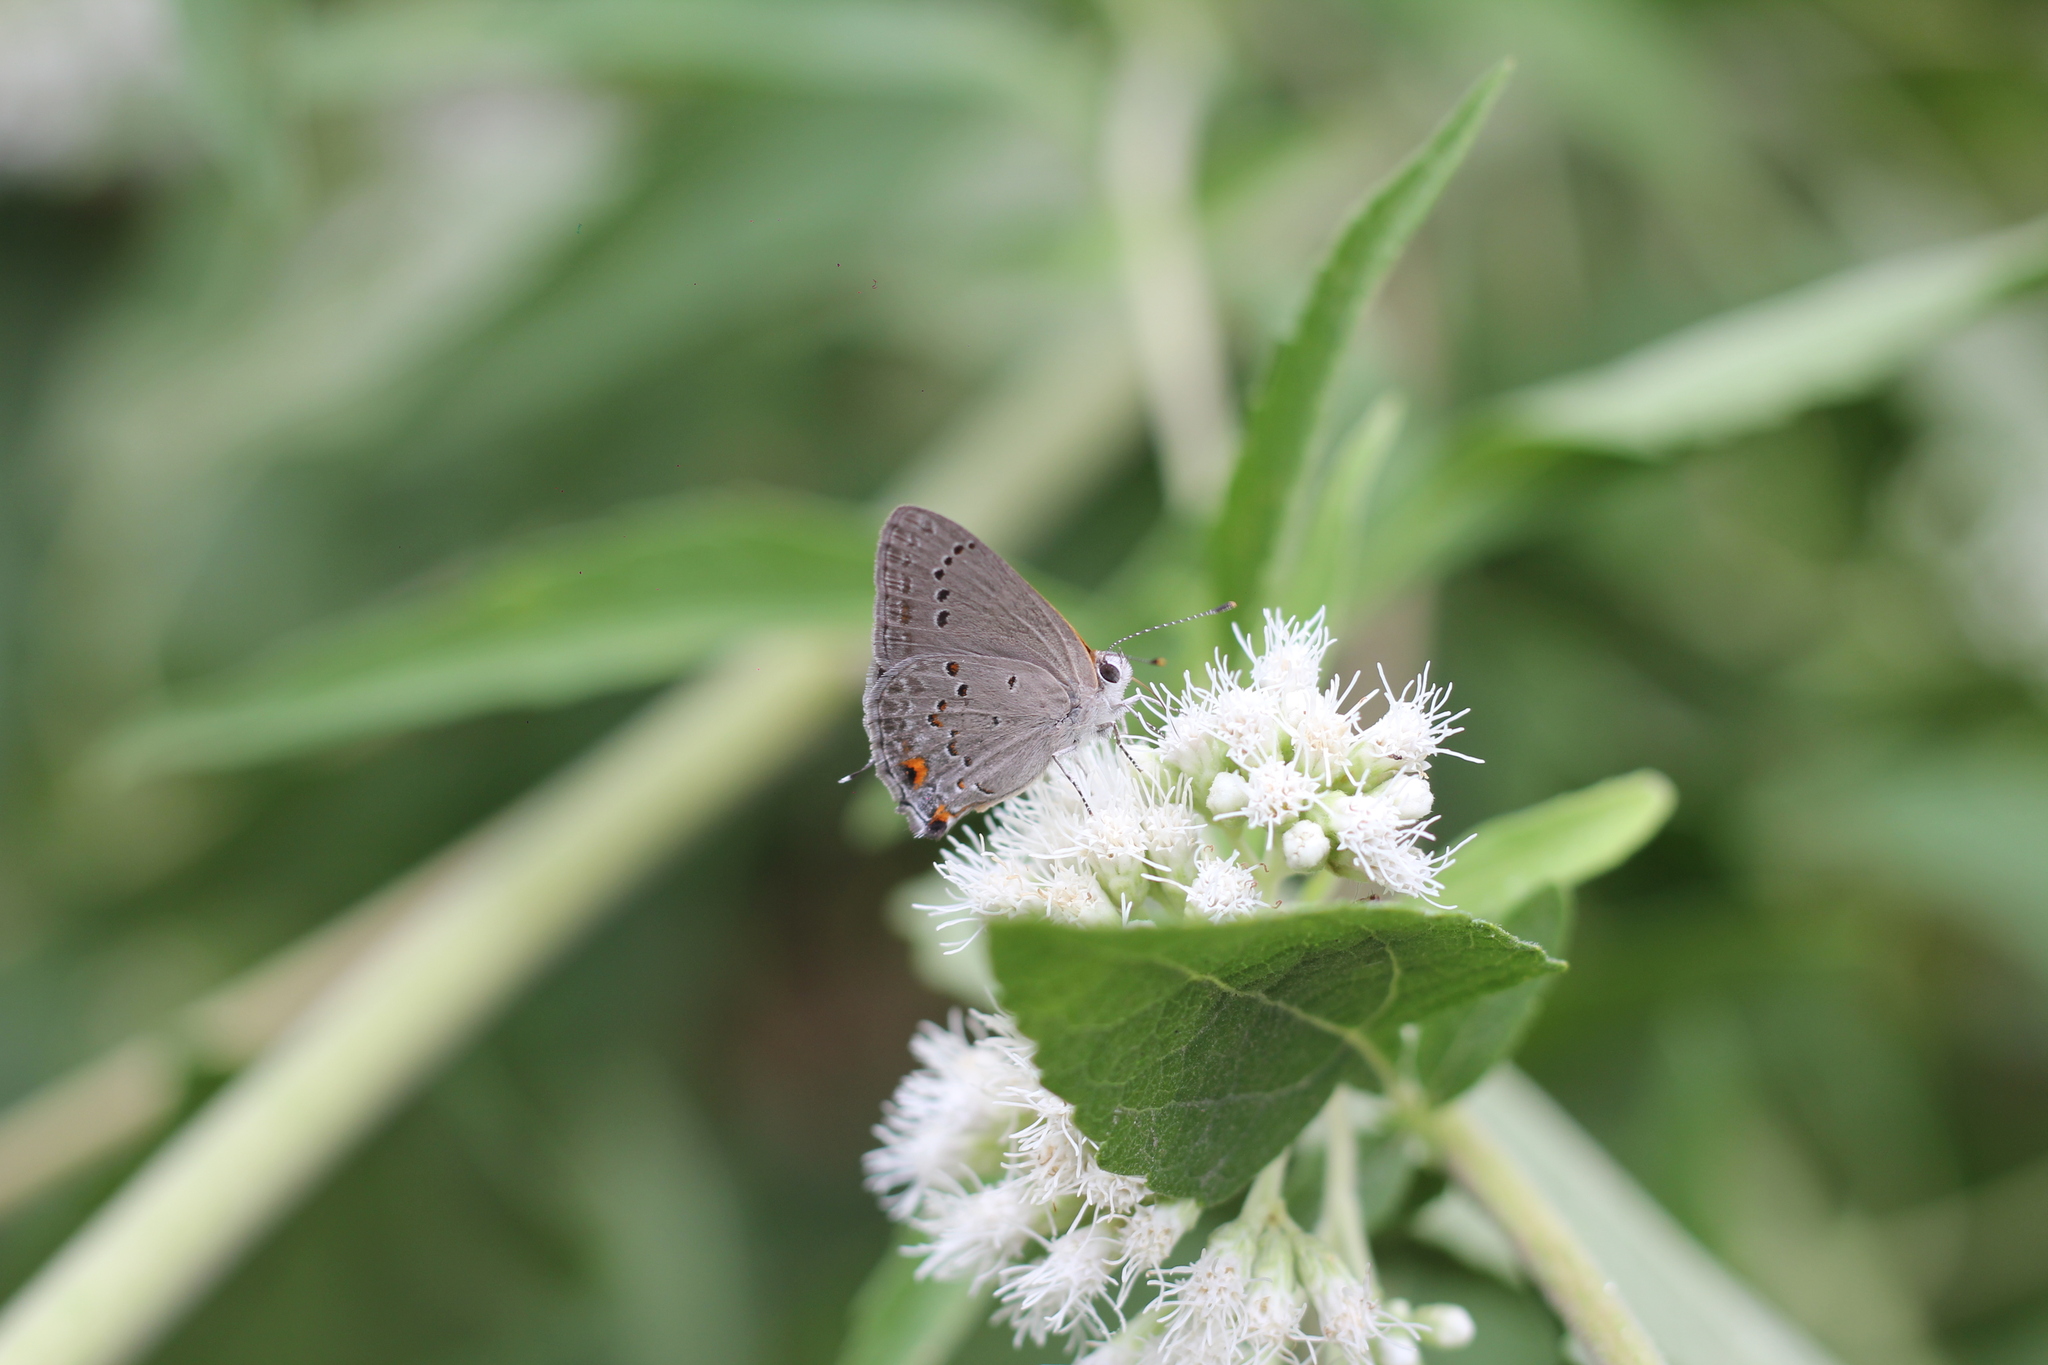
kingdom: Animalia
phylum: Arthropoda
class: Insecta
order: Lepidoptera
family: Lycaenidae
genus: Strymon
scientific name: Strymon eurytulus
